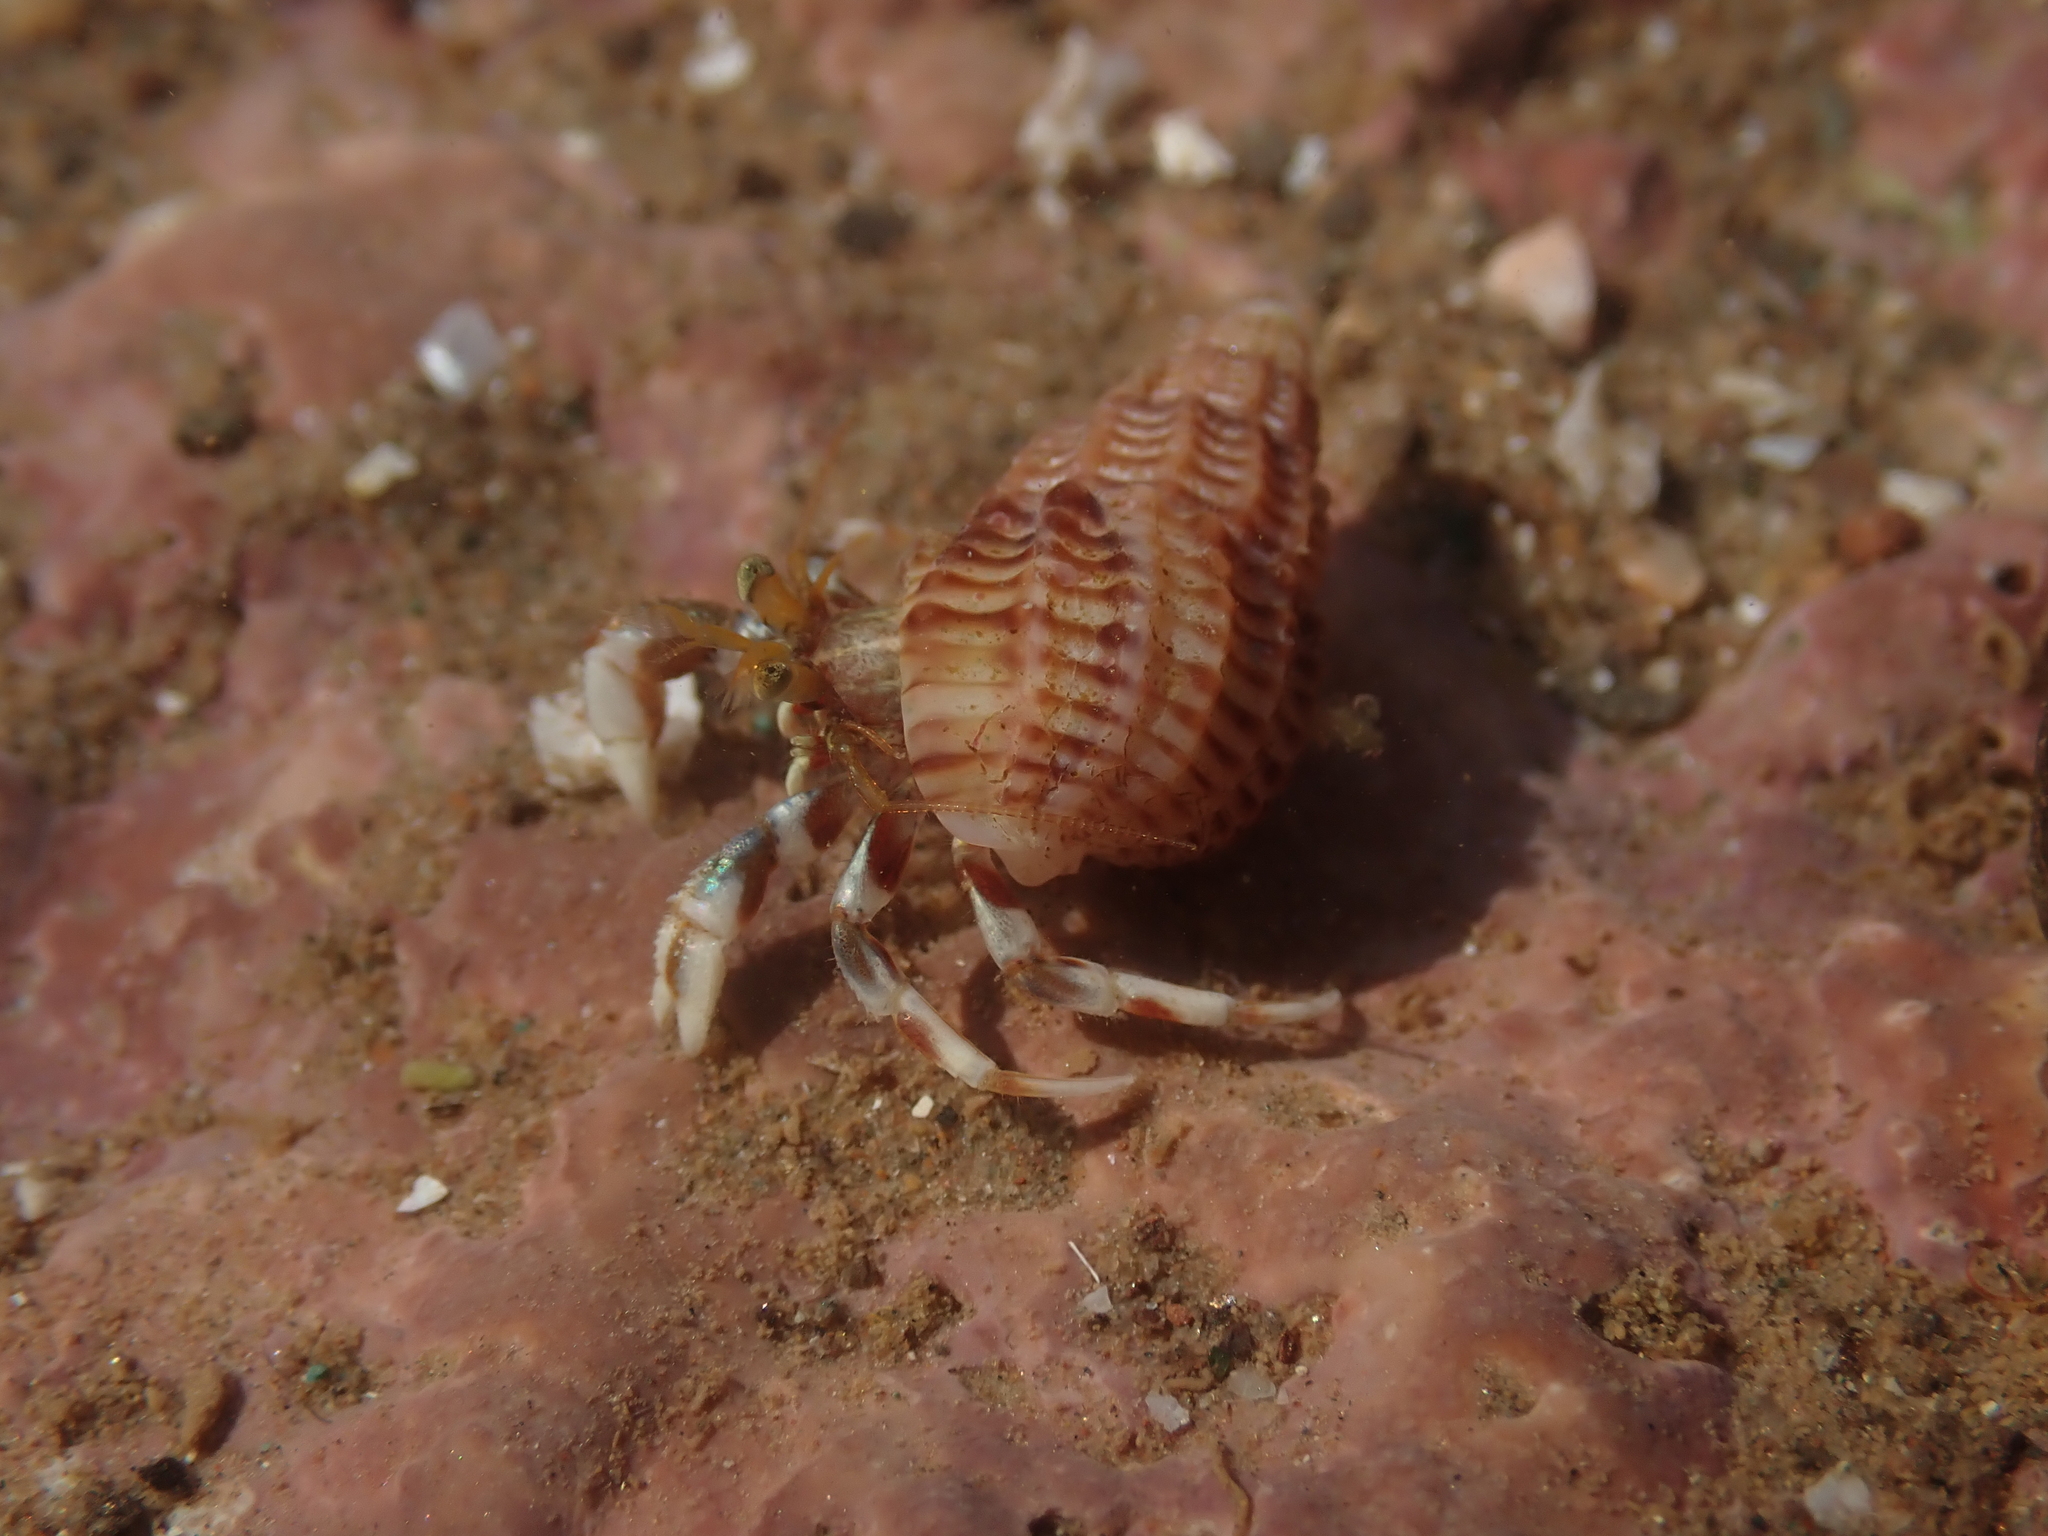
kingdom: Animalia
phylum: Arthropoda
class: Malacostraca
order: Decapoda
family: Paguridae
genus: Pagurus
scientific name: Pagurus acadianus
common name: Acadian hermit crab
